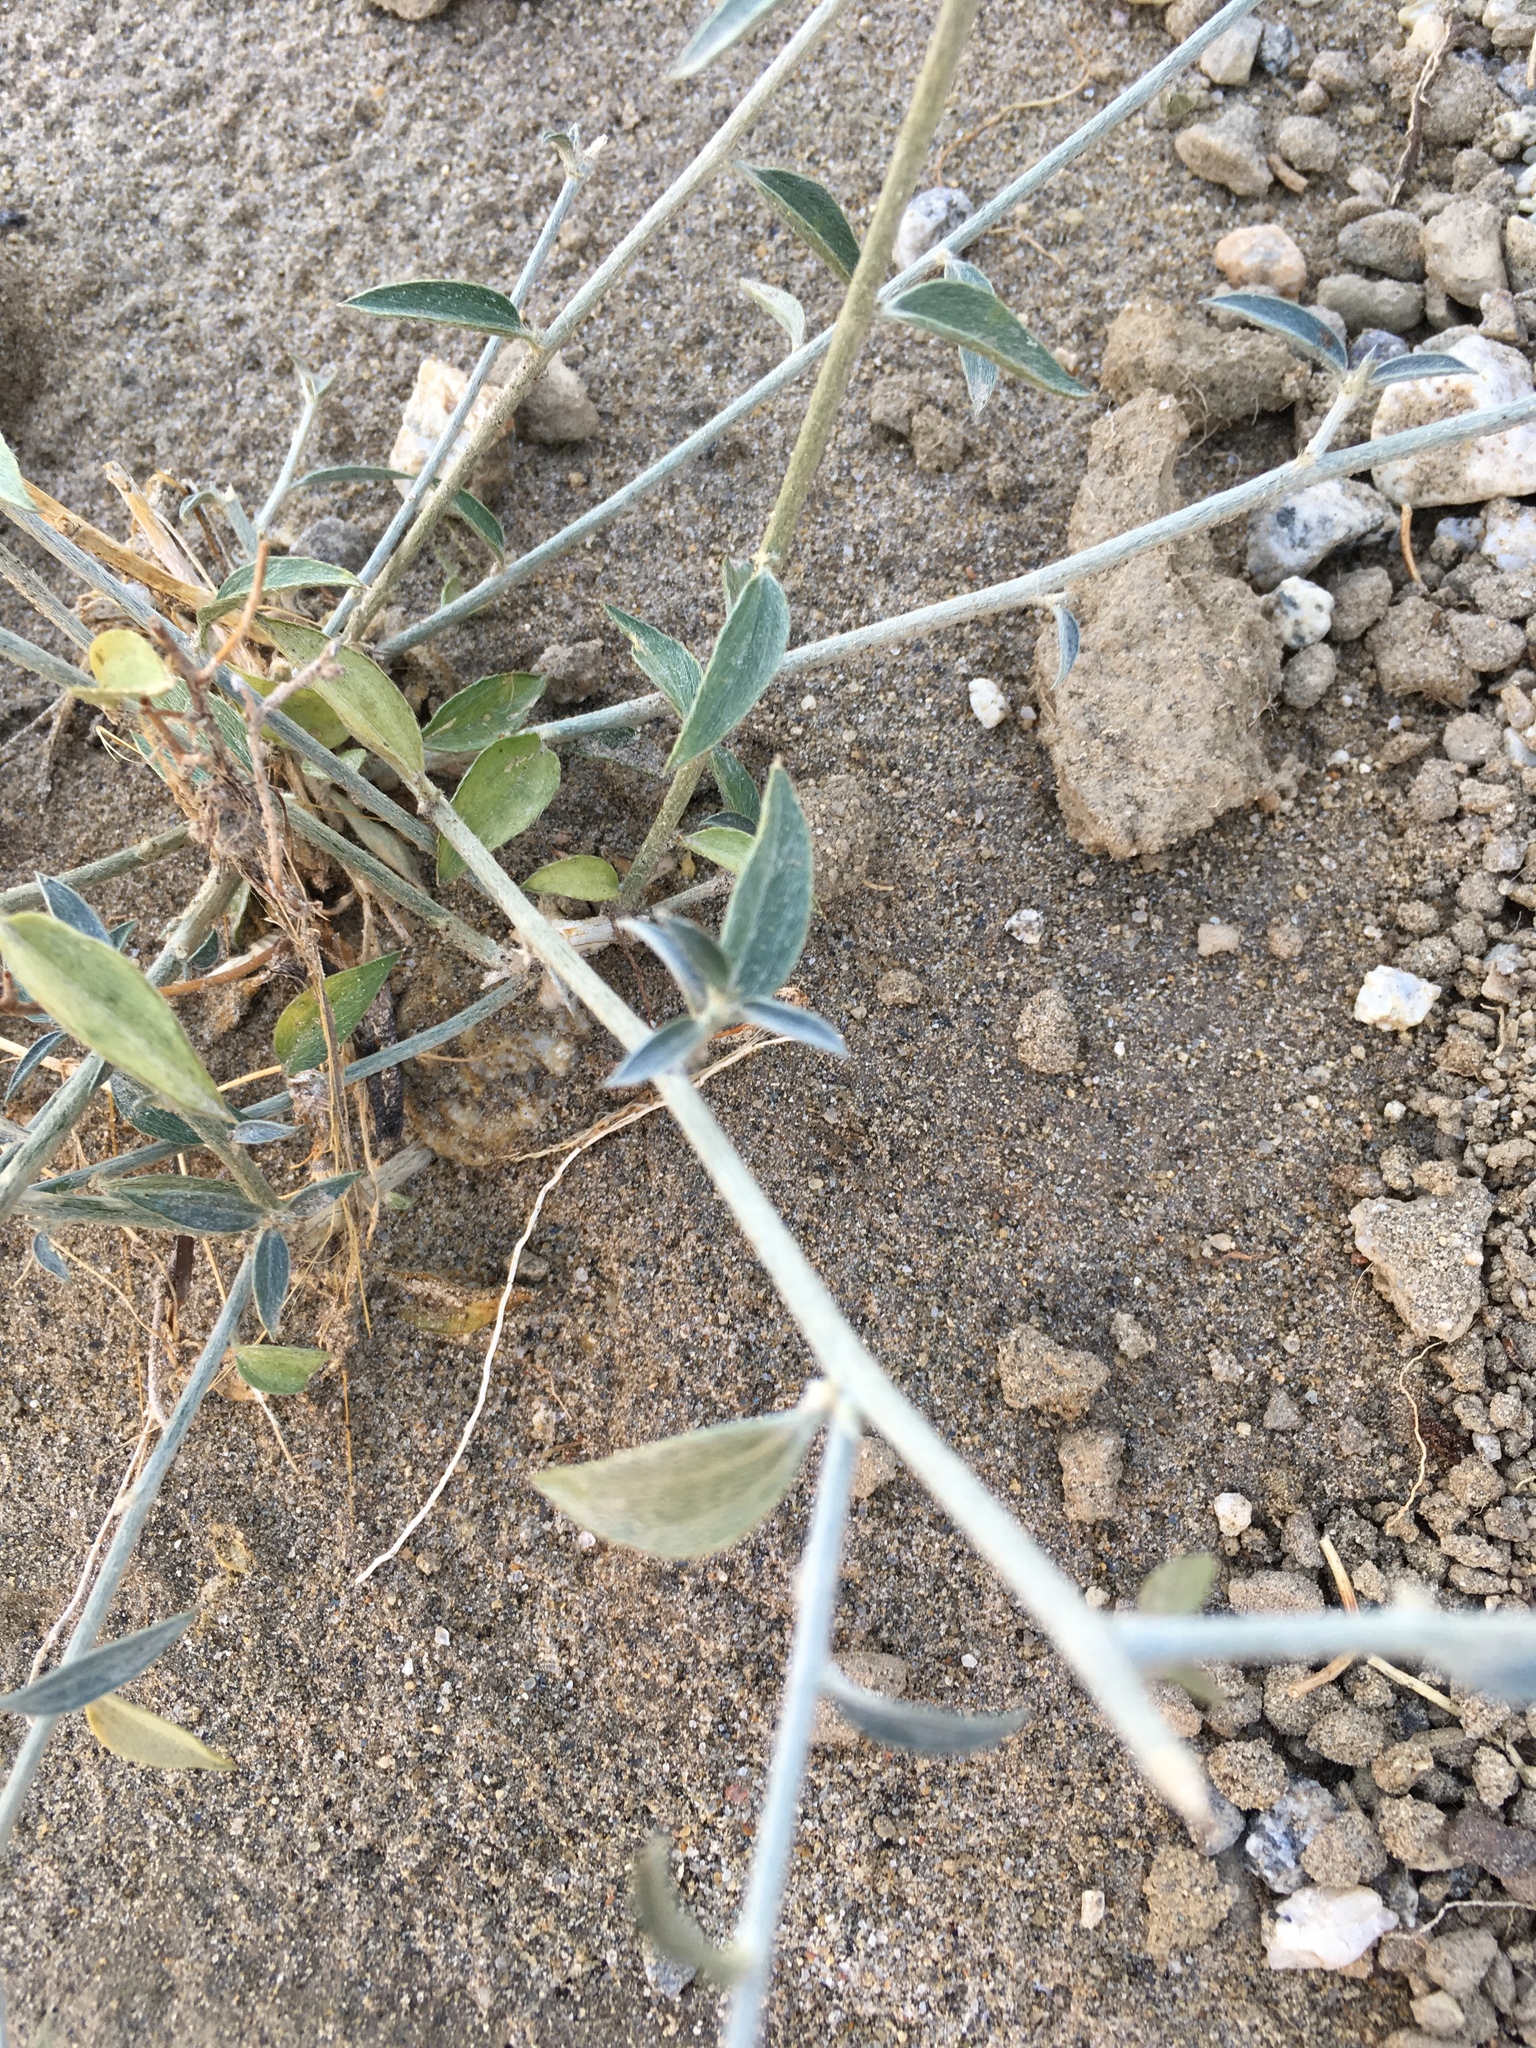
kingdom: Plantae
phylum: Tracheophyta
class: Magnoliopsida
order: Malpighiales
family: Euphorbiaceae
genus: Ditaxis
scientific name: Ditaxis lanceolata
